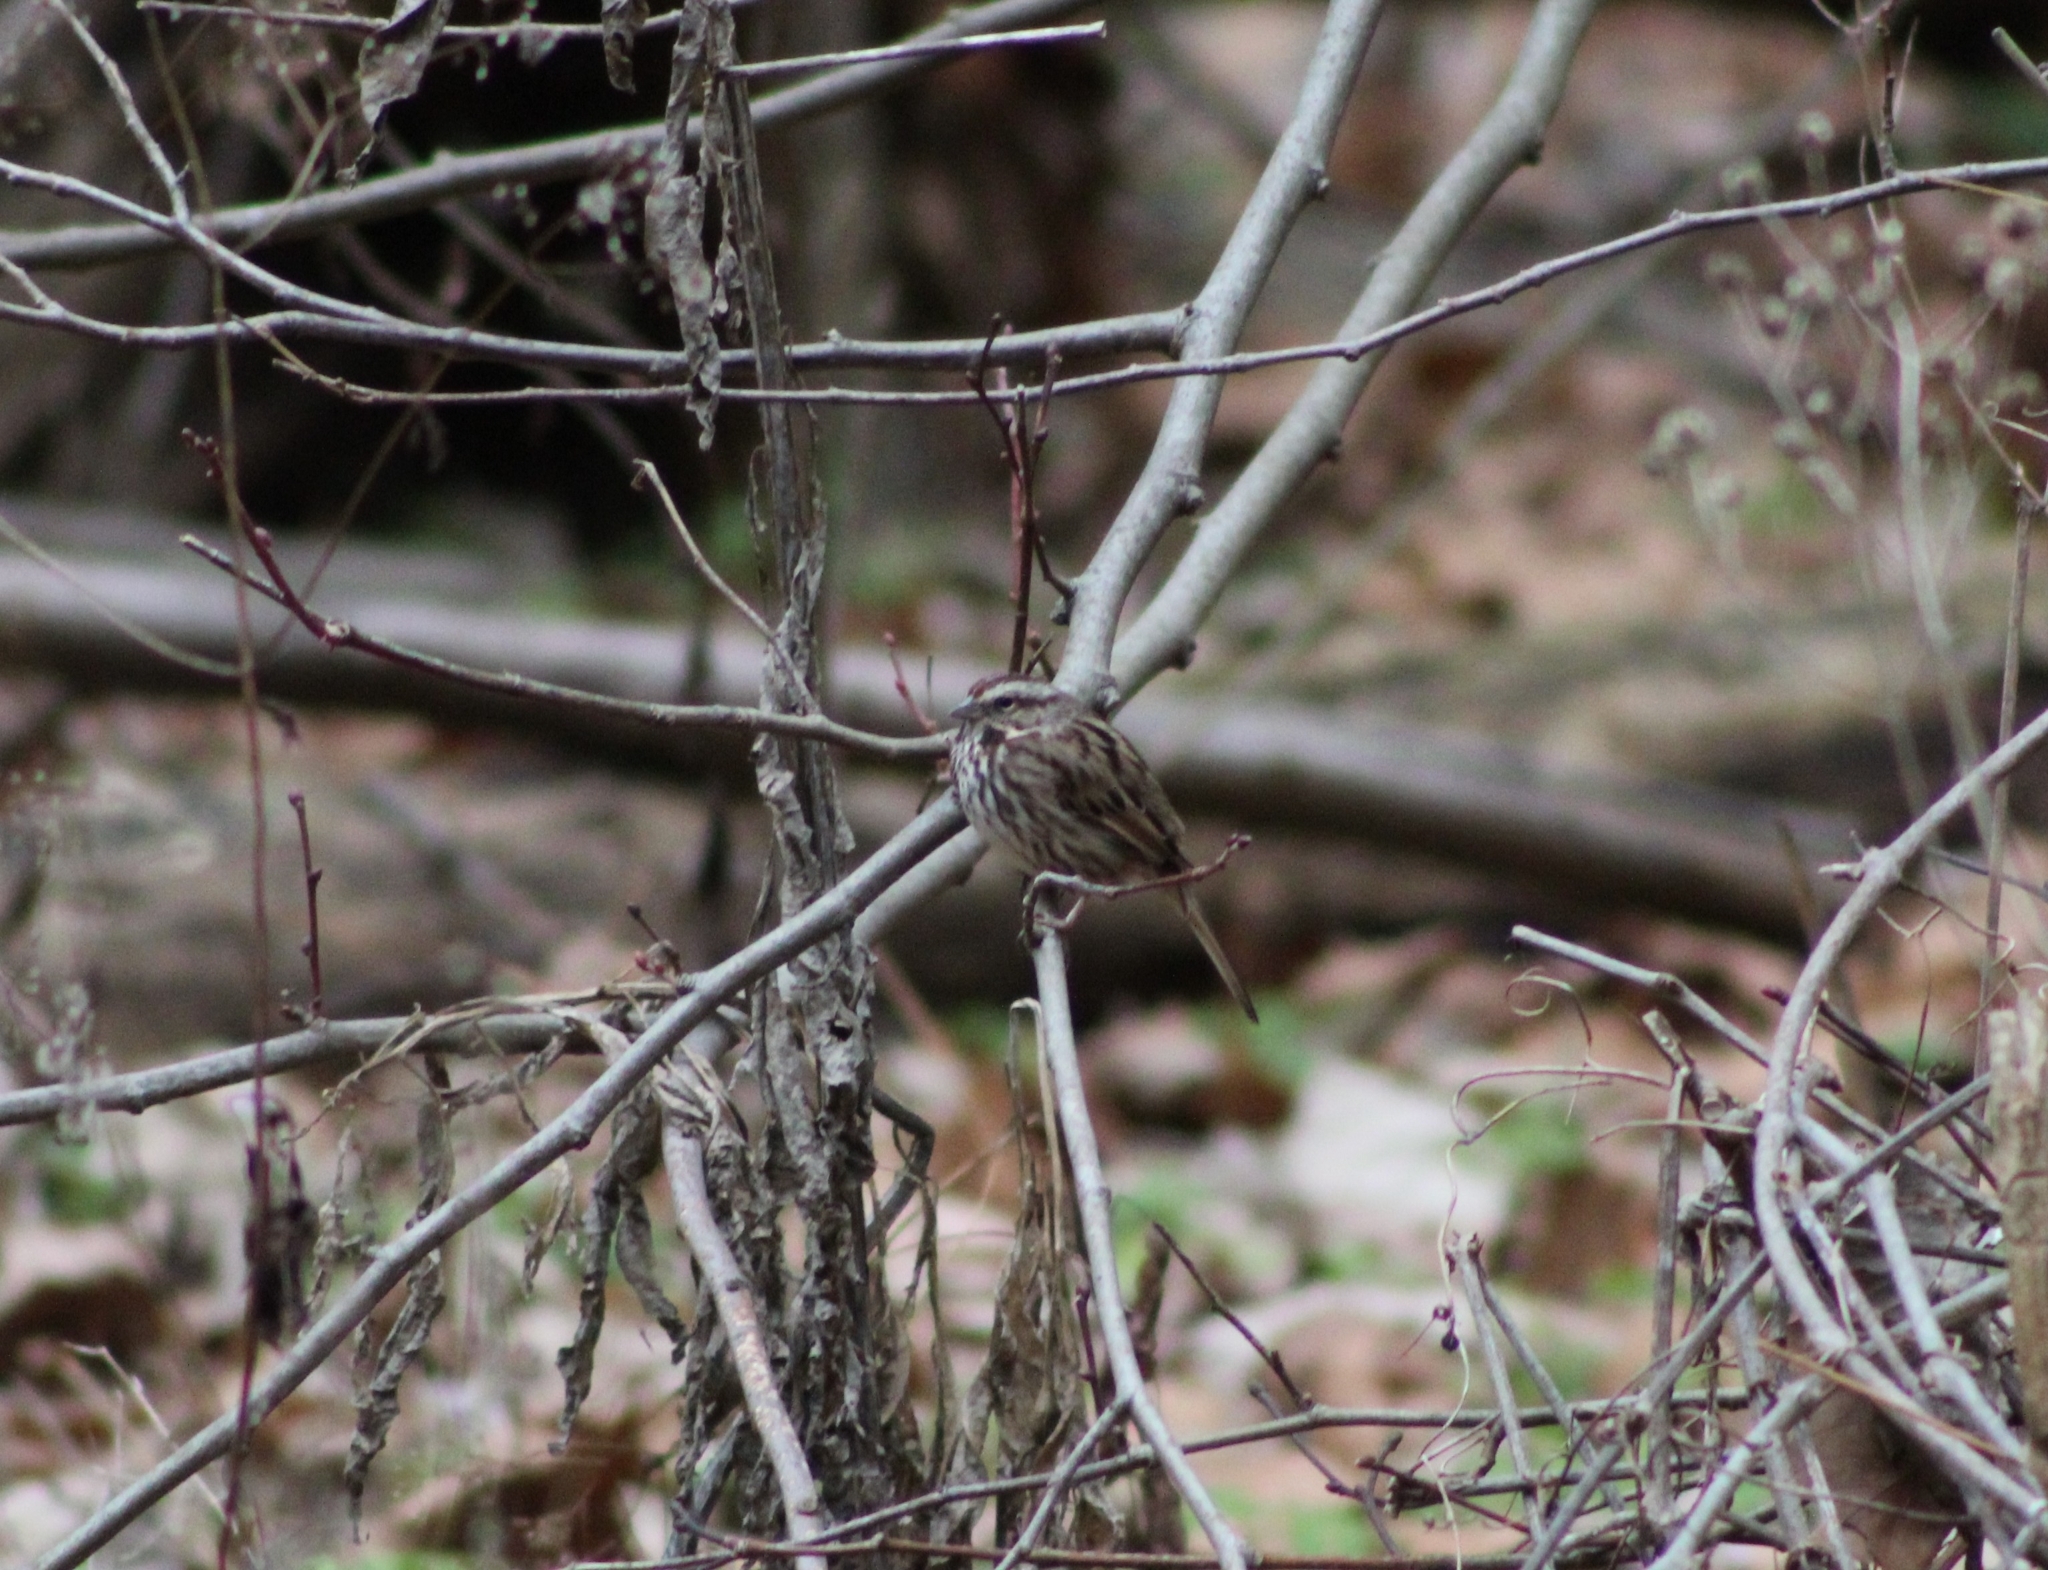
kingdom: Animalia
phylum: Chordata
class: Aves
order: Passeriformes
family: Passerellidae
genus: Melospiza
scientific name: Melospiza melodia
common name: Song sparrow
